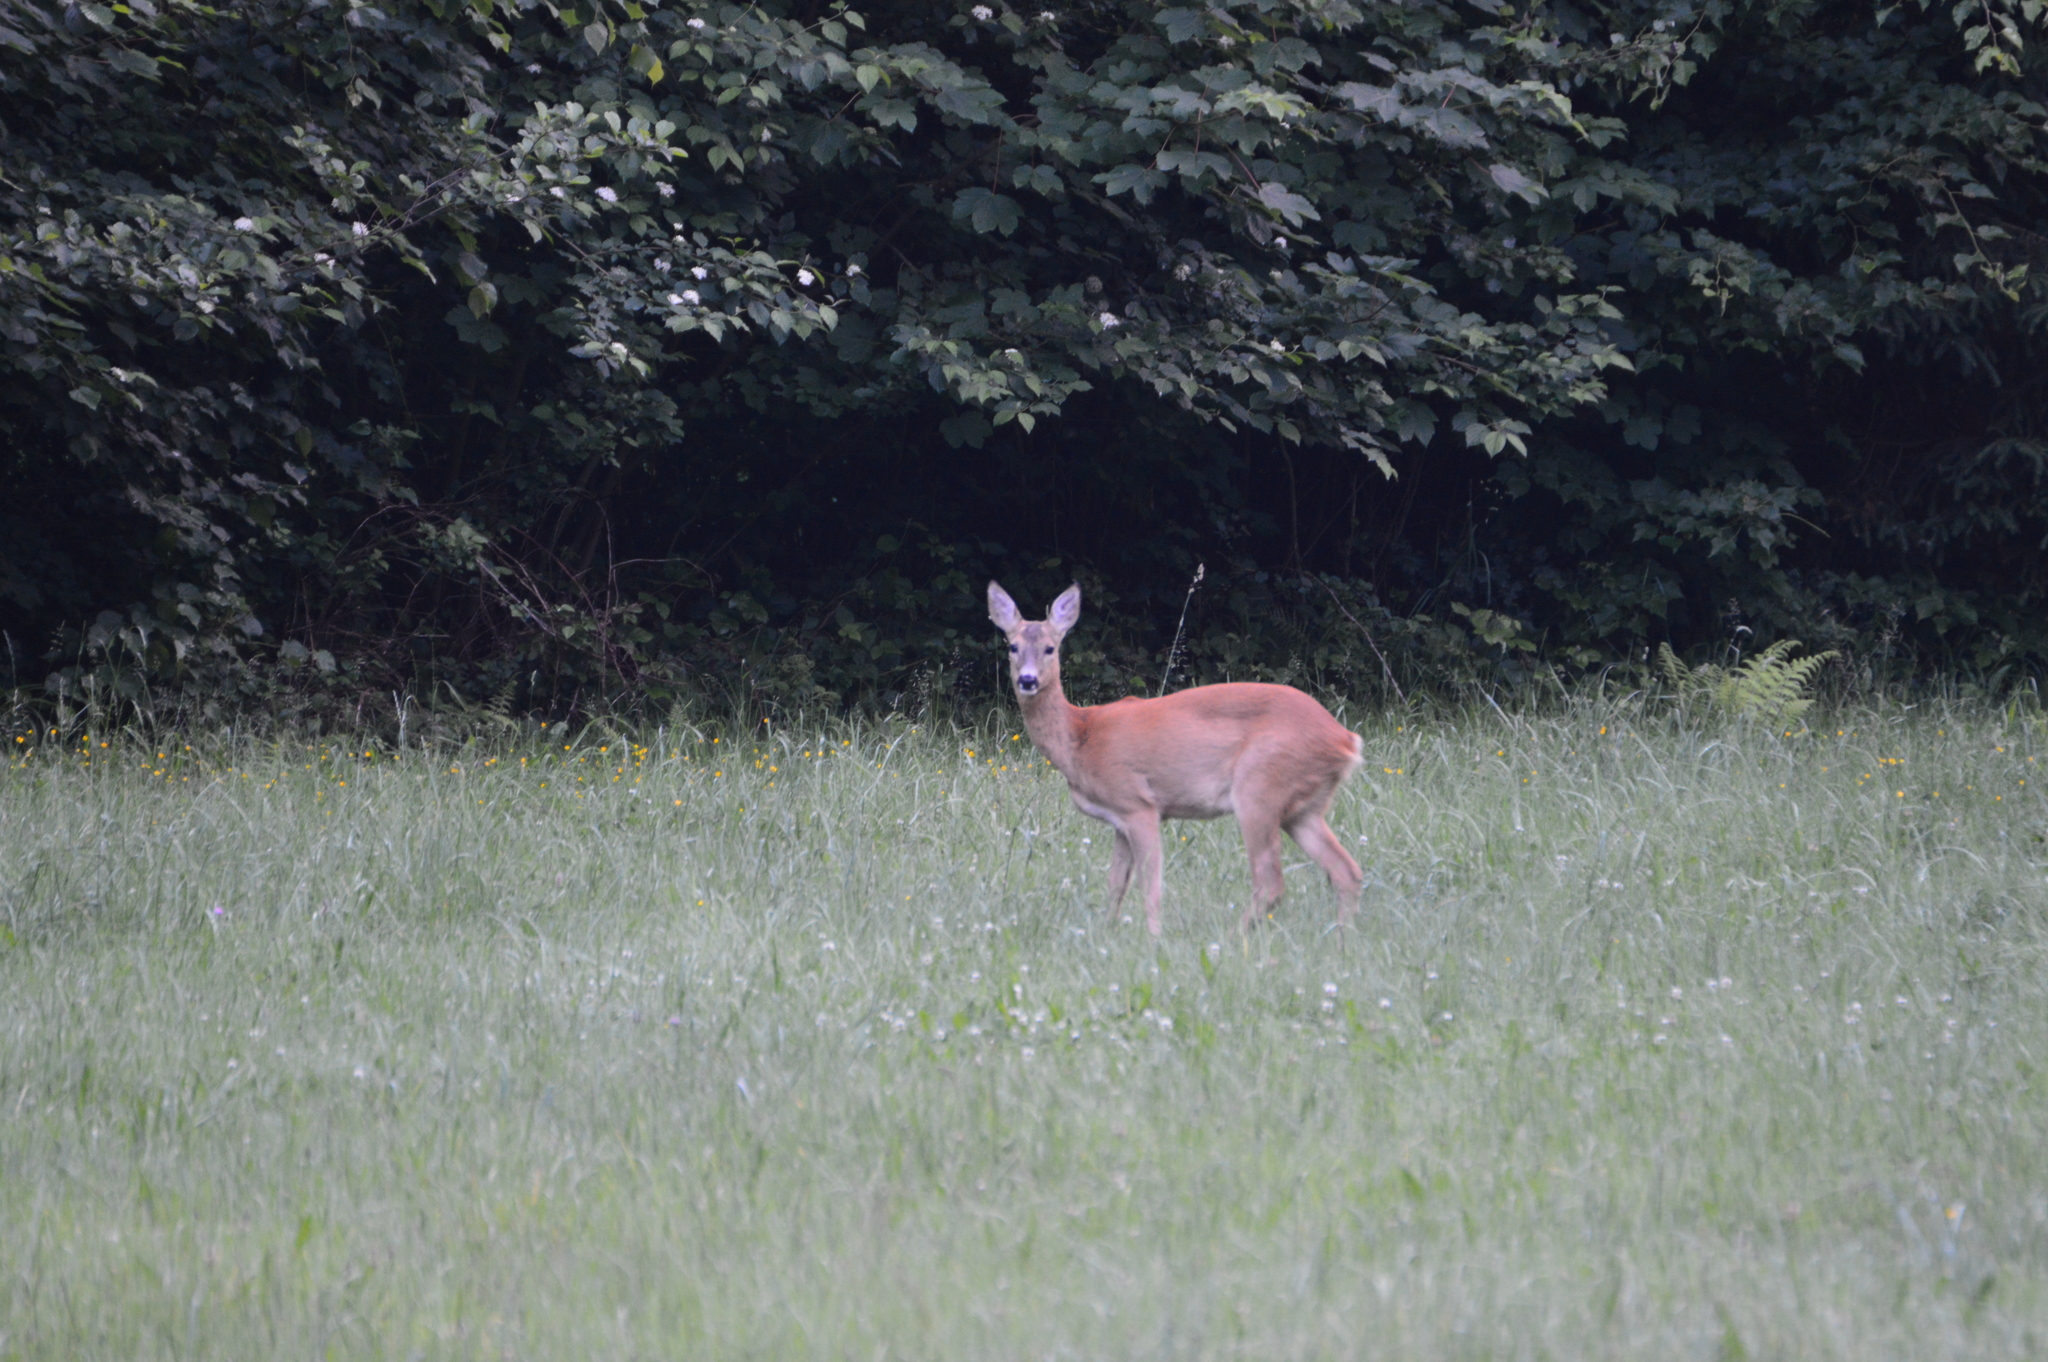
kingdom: Animalia
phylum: Chordata
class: Mammalia
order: Artiodactyla
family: Cervidae
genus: Capreolus
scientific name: Capreolus capreolus
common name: Western roe deer
